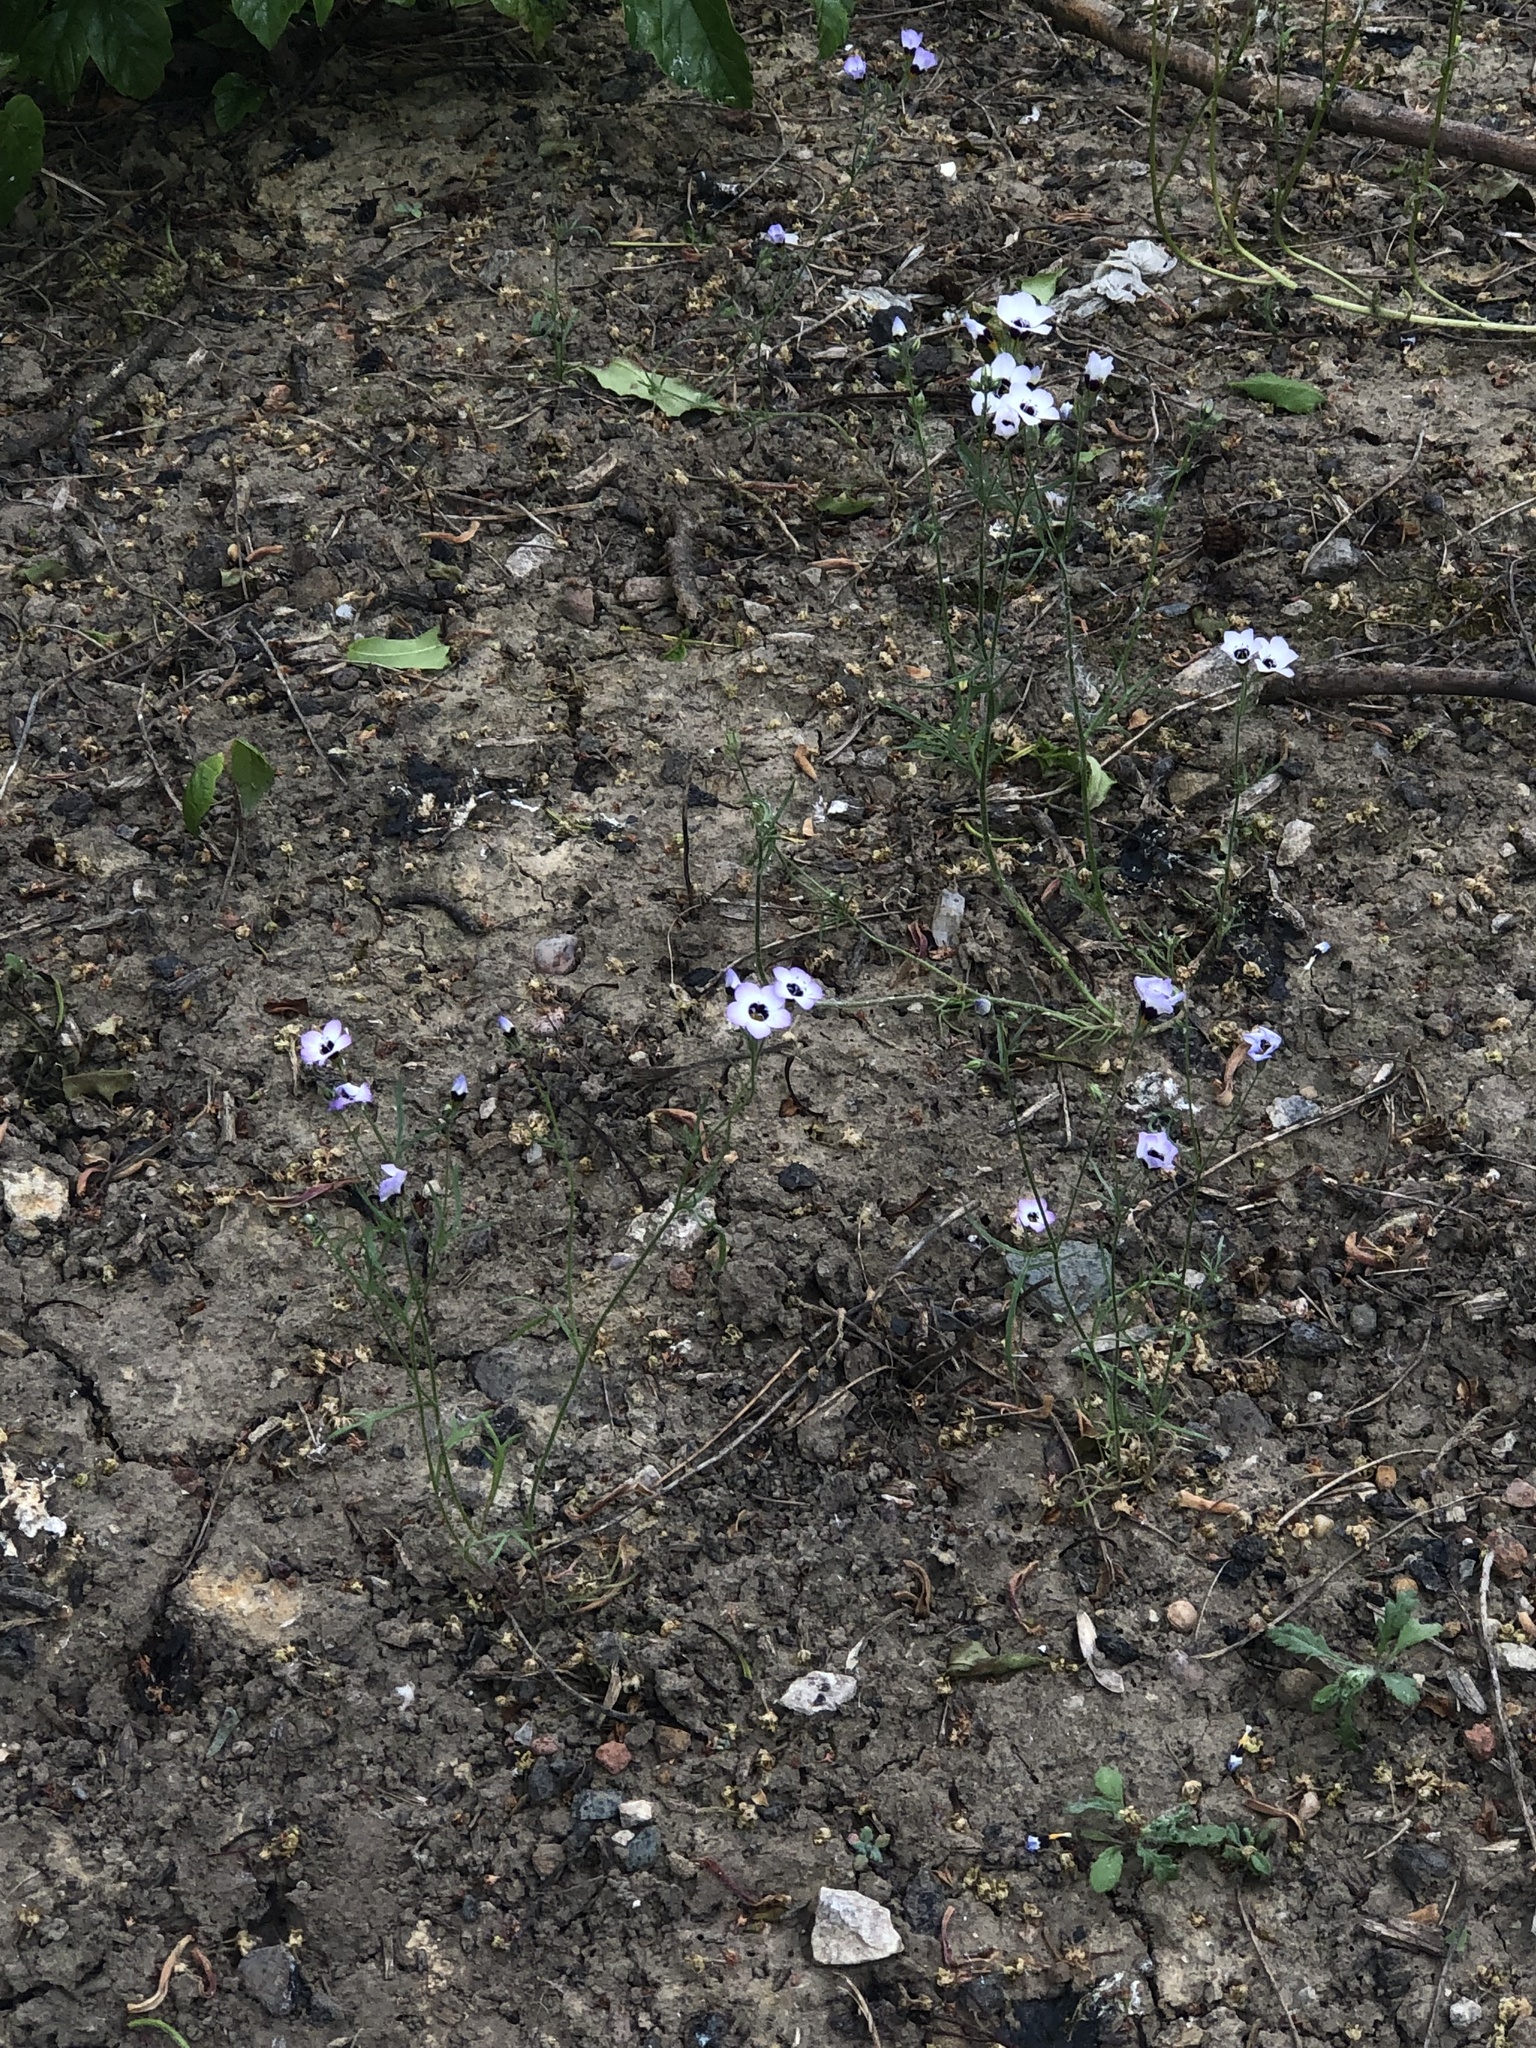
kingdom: Plantae
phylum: Tracheophyta
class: Magnoliopsida
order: Ericales
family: Polemoniaceae
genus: Gilia
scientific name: Gilia tricolor
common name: Bird's-eyes
